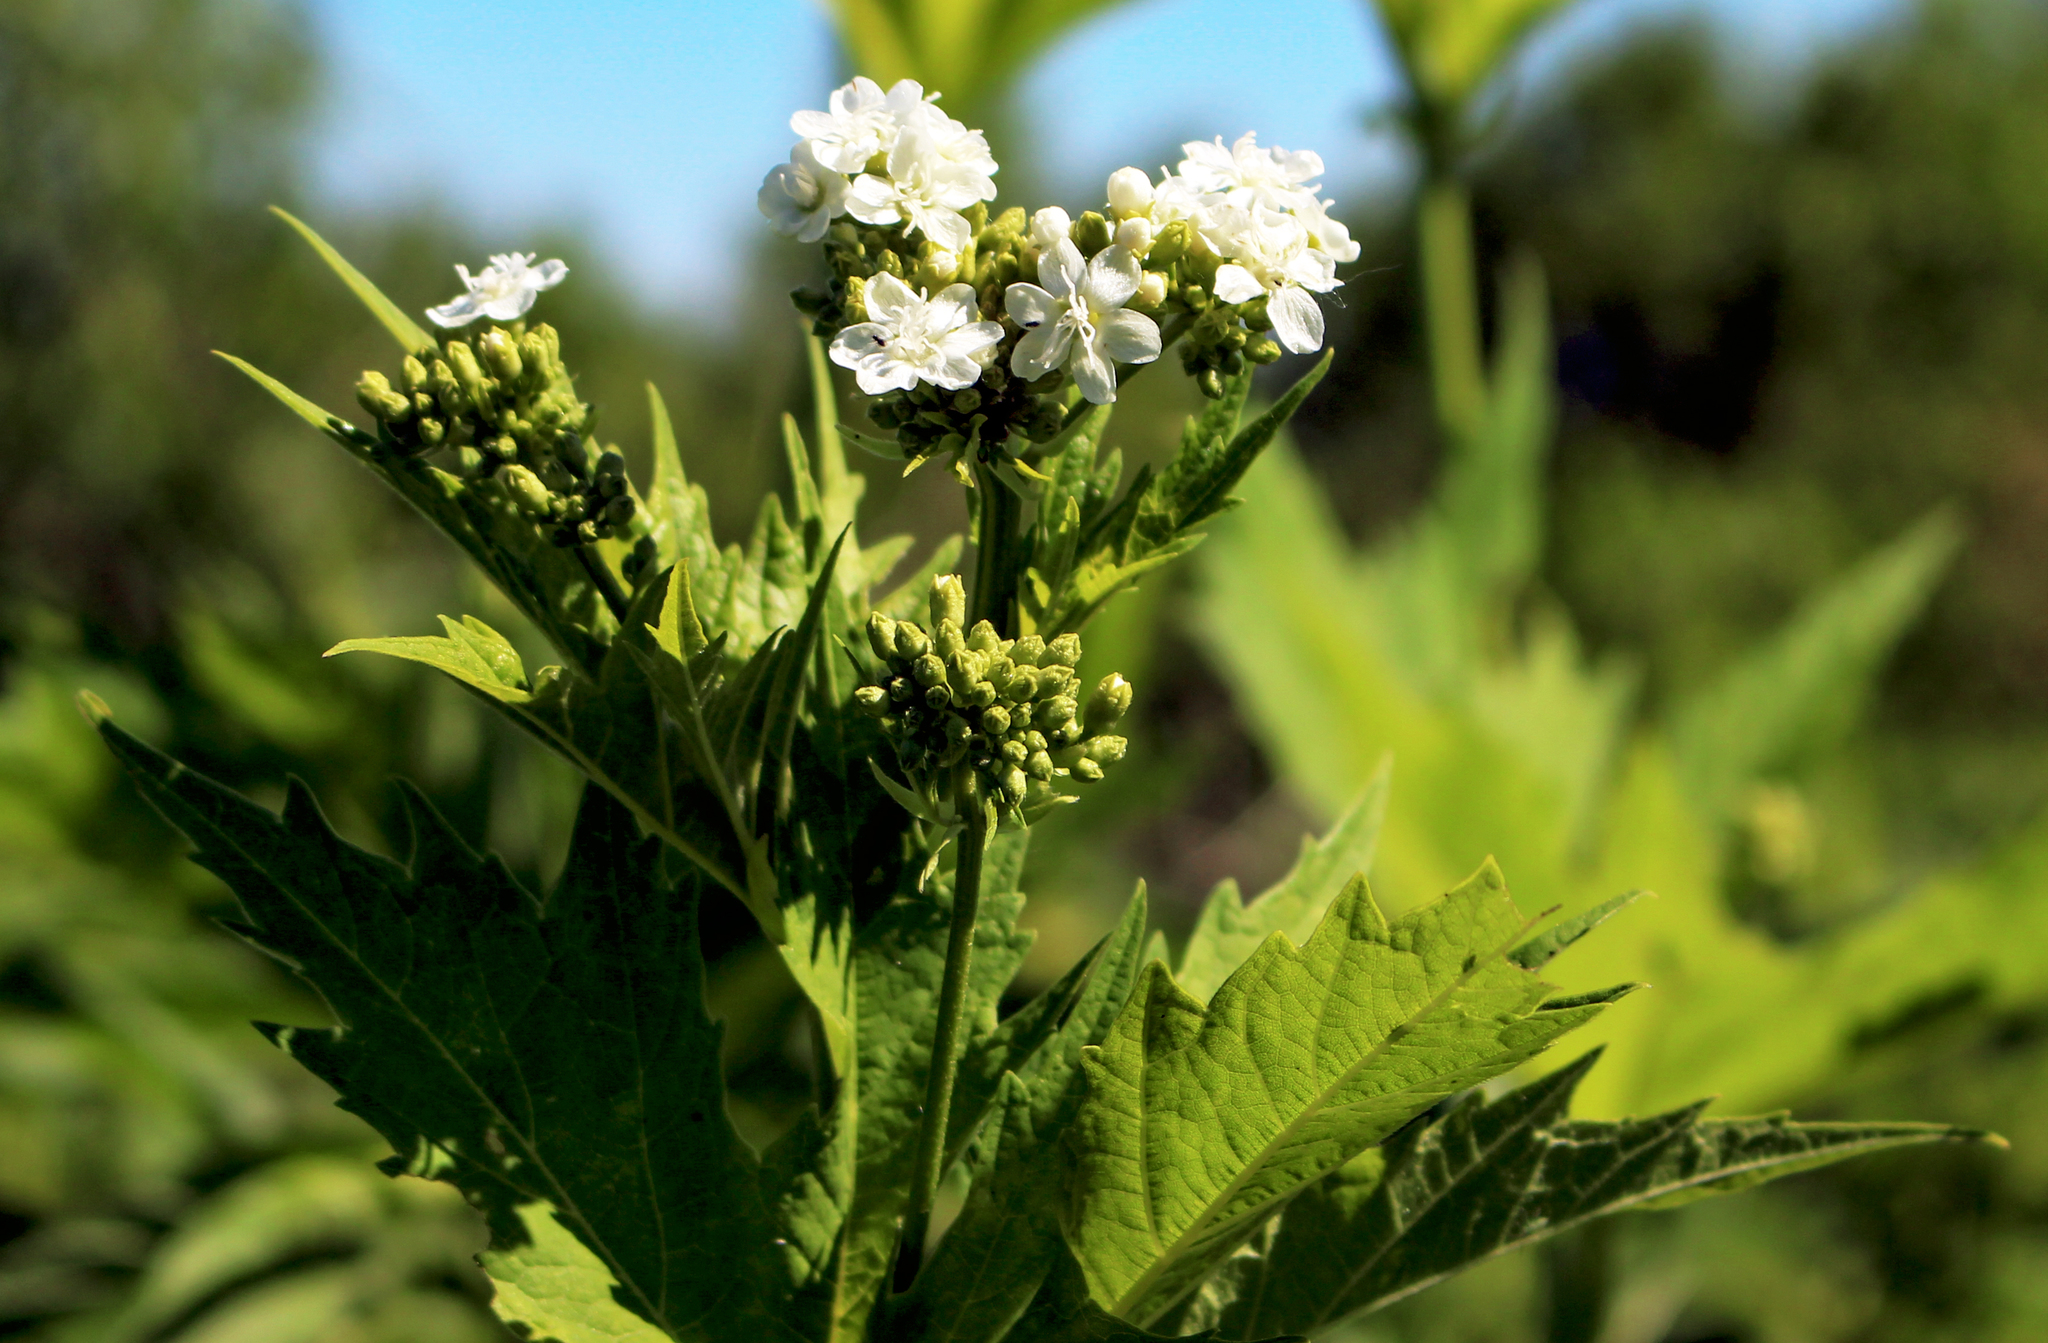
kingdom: Plantae
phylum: Tracheophyta
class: Magnoliopsida
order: Malvales
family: Malvaceae
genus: Napaea
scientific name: Napaea dioica
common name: Glade-mallow
